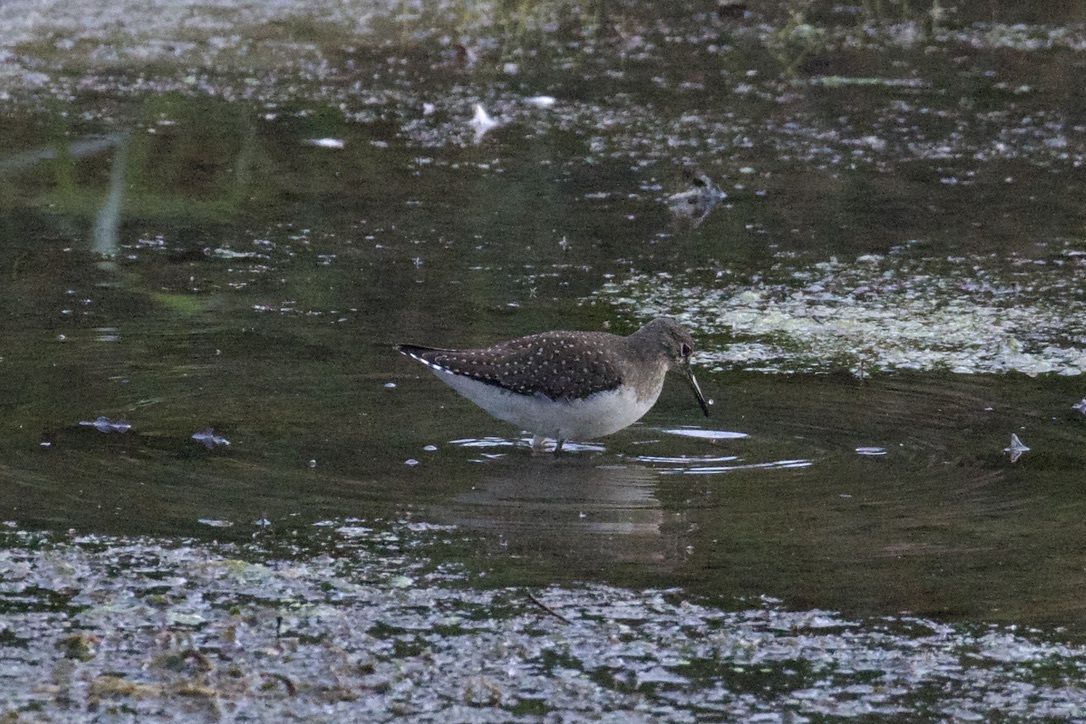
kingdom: Animalia
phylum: Chordata
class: Aves
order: Charadriiformes
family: Scolopacidae
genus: Tringa
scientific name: Tringa solitaria
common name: Solitary sandpiper
